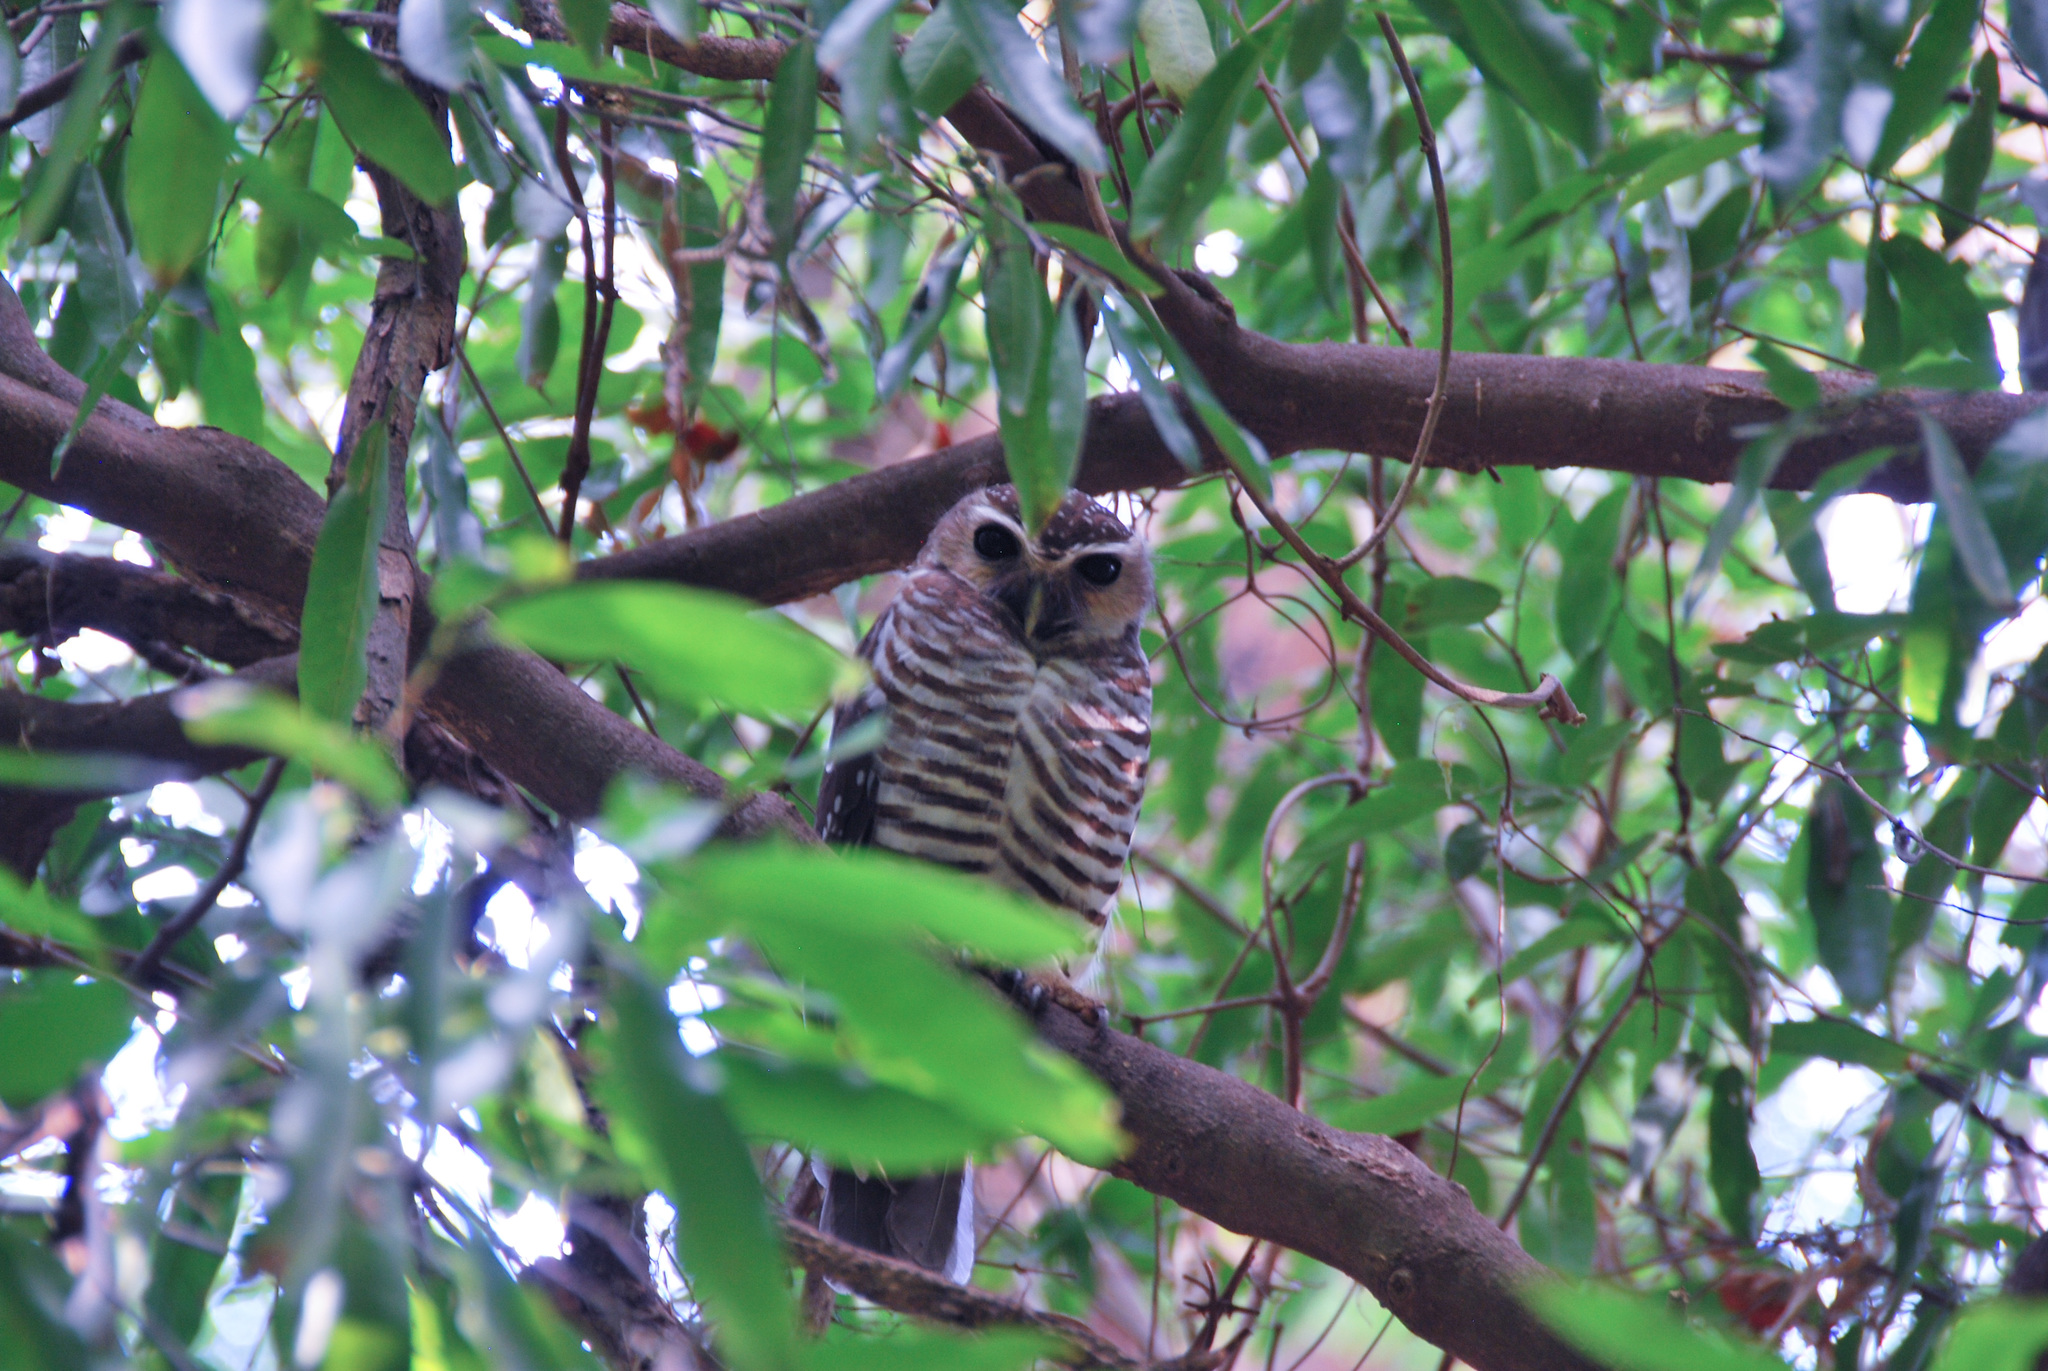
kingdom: Animalia
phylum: Chordata
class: Aves
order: Strigiformes
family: Strigidae
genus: Ninox
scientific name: Ninox superciliaris
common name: White-browed hawk-owl
